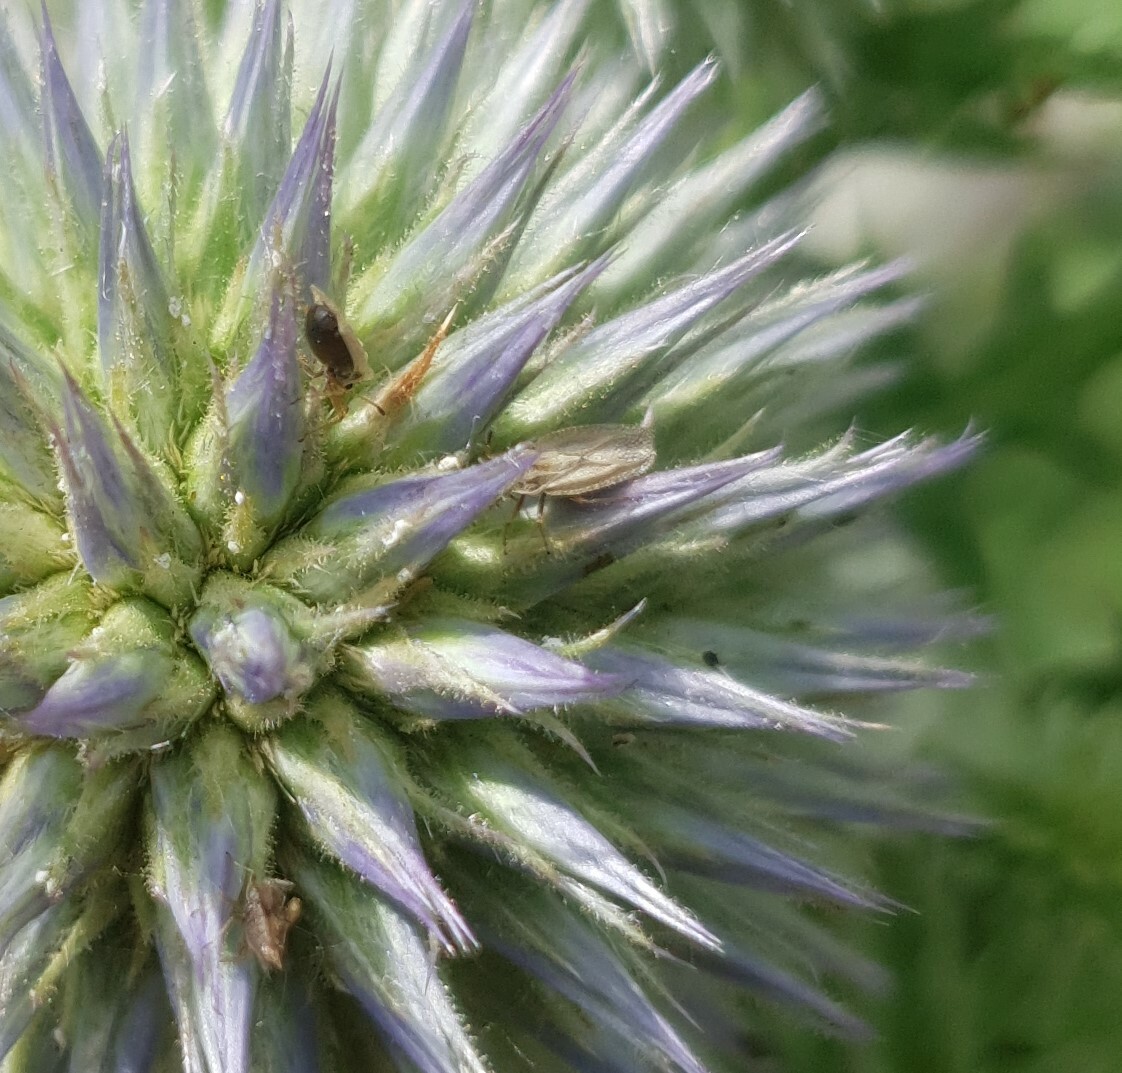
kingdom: Plantae
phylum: Tracheophyta
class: Liliopsida
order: Poales
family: Juncaceae
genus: Elasmotropis
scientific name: Elasmotropis testacea
